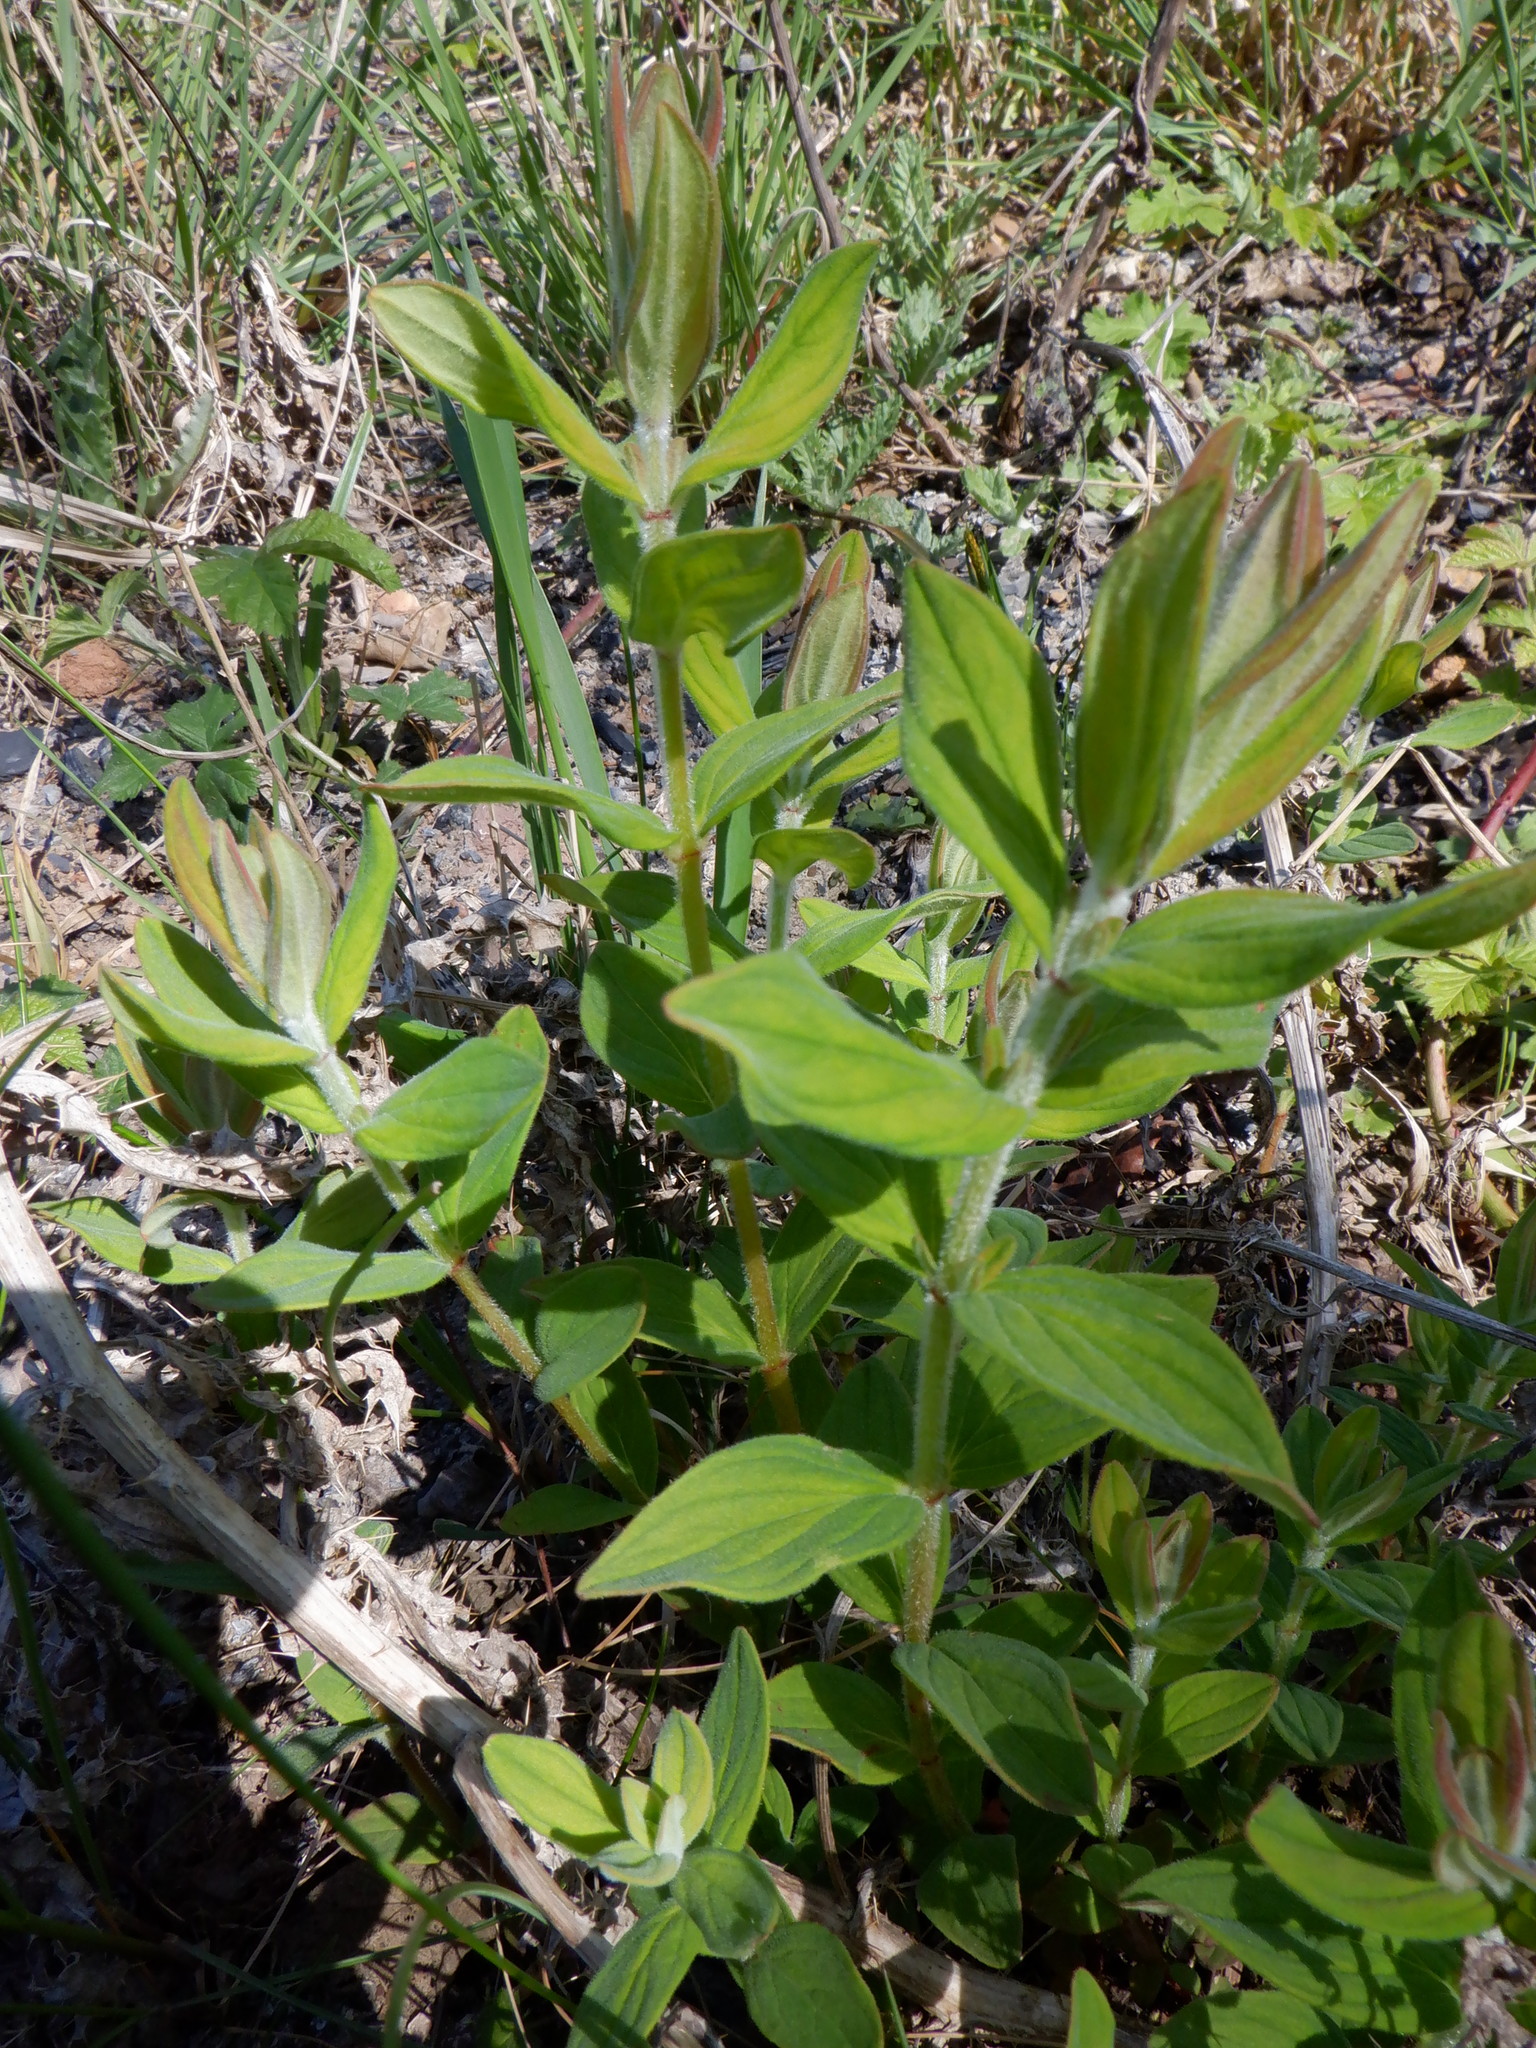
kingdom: Plantae
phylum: Tracheophyta
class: Magnoliopsida
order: Malpighiales
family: Hypericaceae
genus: Hypericum
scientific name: Hypericum hirsutum
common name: Hairy st. john's-wort
